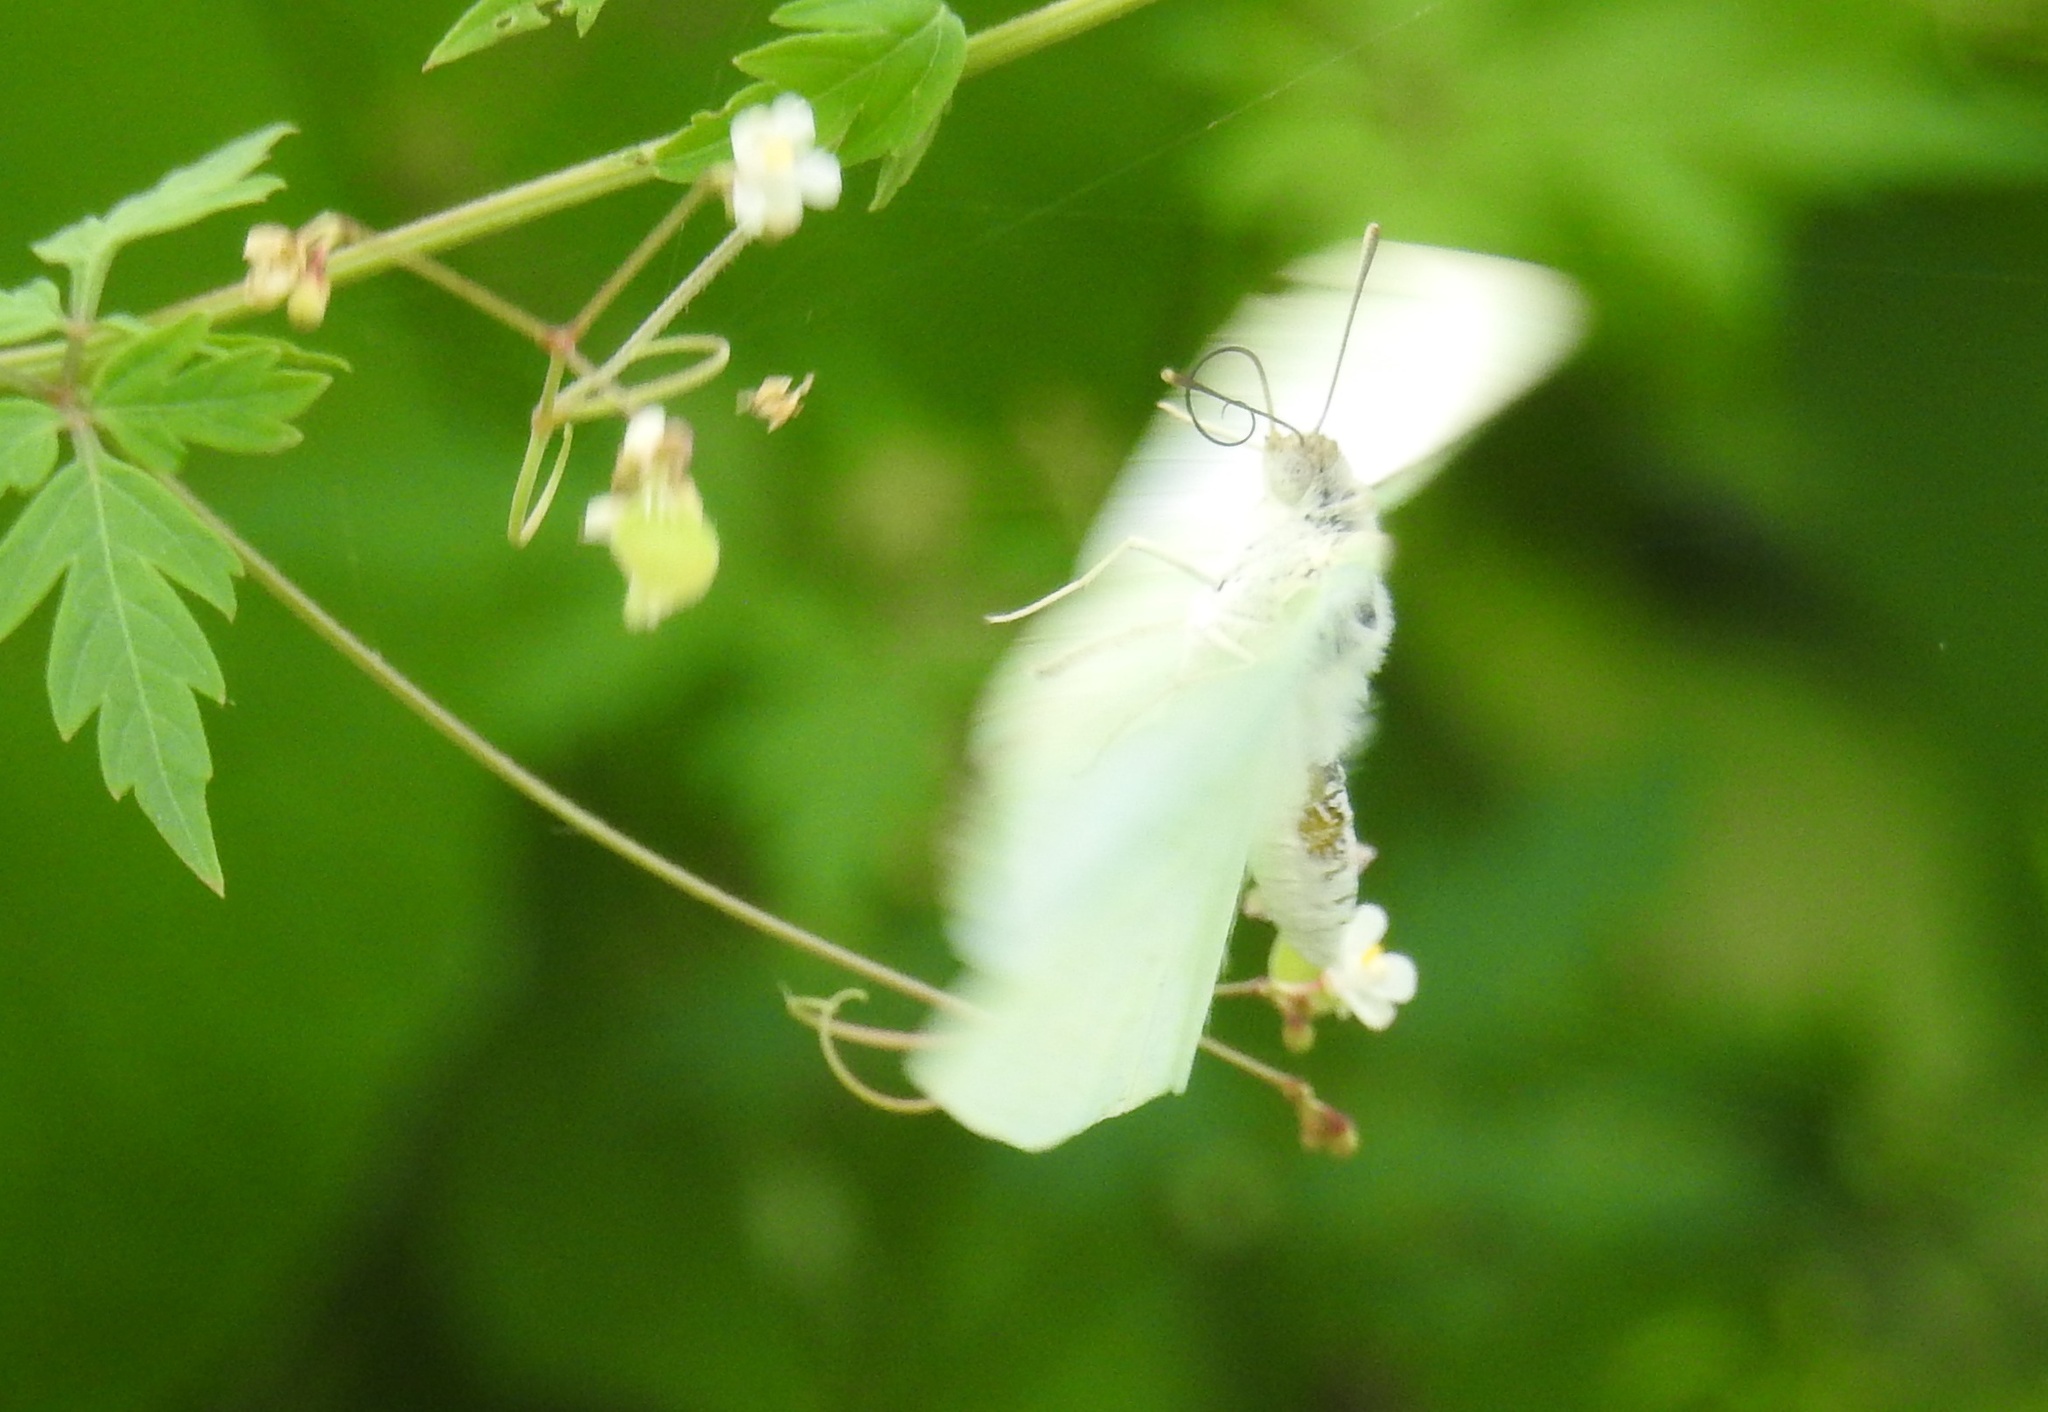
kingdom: Animalia
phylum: Arthropoda
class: Insecta
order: Lepidoptera
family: Pieridae
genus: Catopsilia
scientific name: Catopsilia pyranthe
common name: Mottled emigrant
